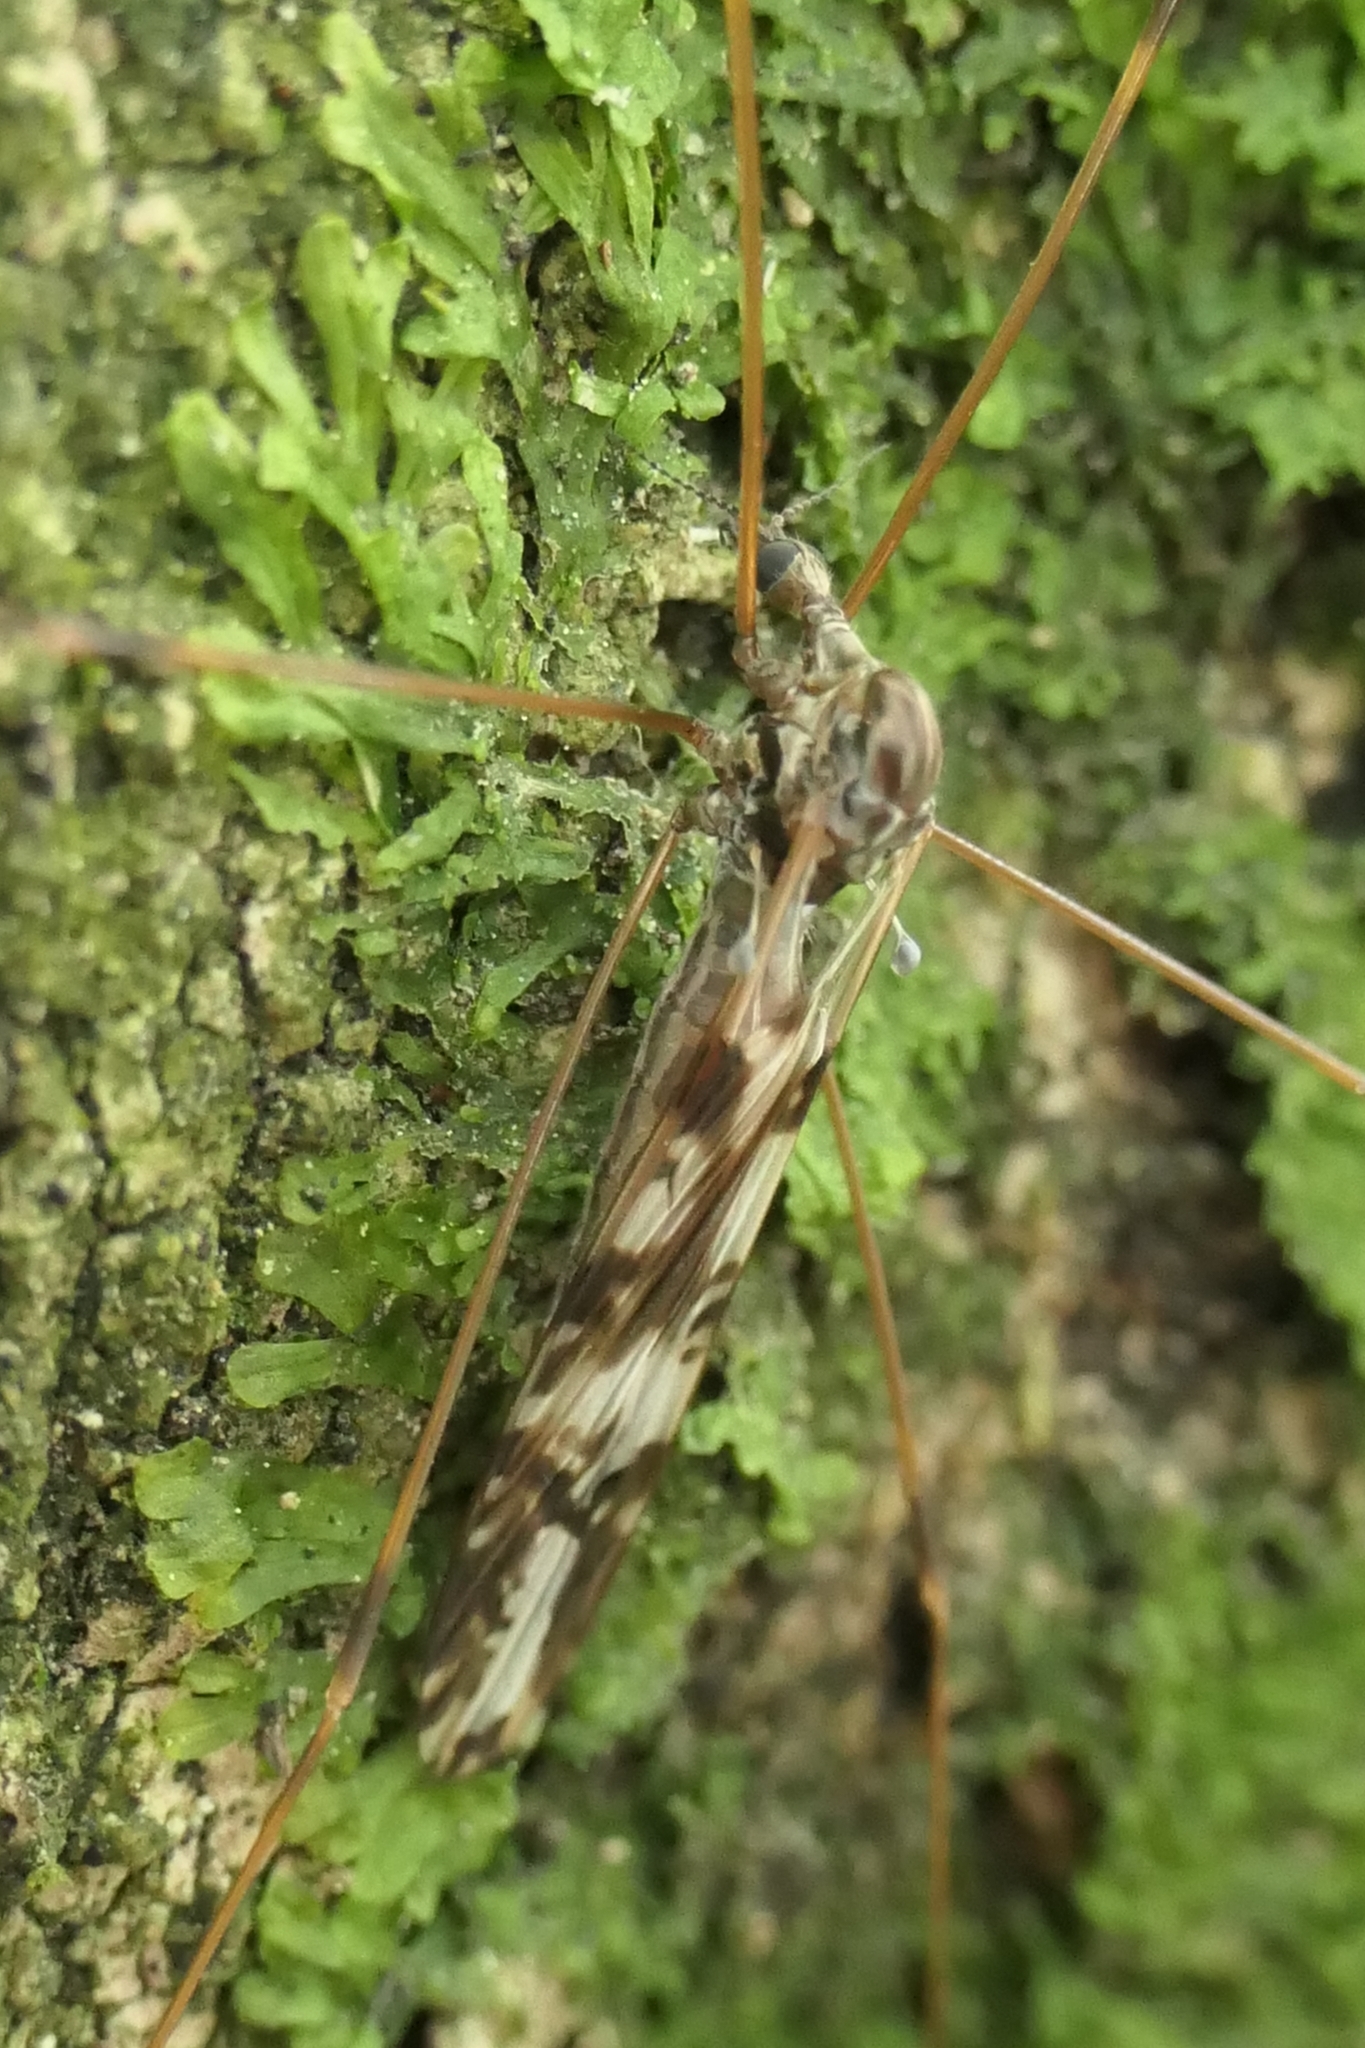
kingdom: Animalia
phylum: Arthropoda
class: Insecta
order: Diptera
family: Limoniidae
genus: Discobola
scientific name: Discobola dohrni
